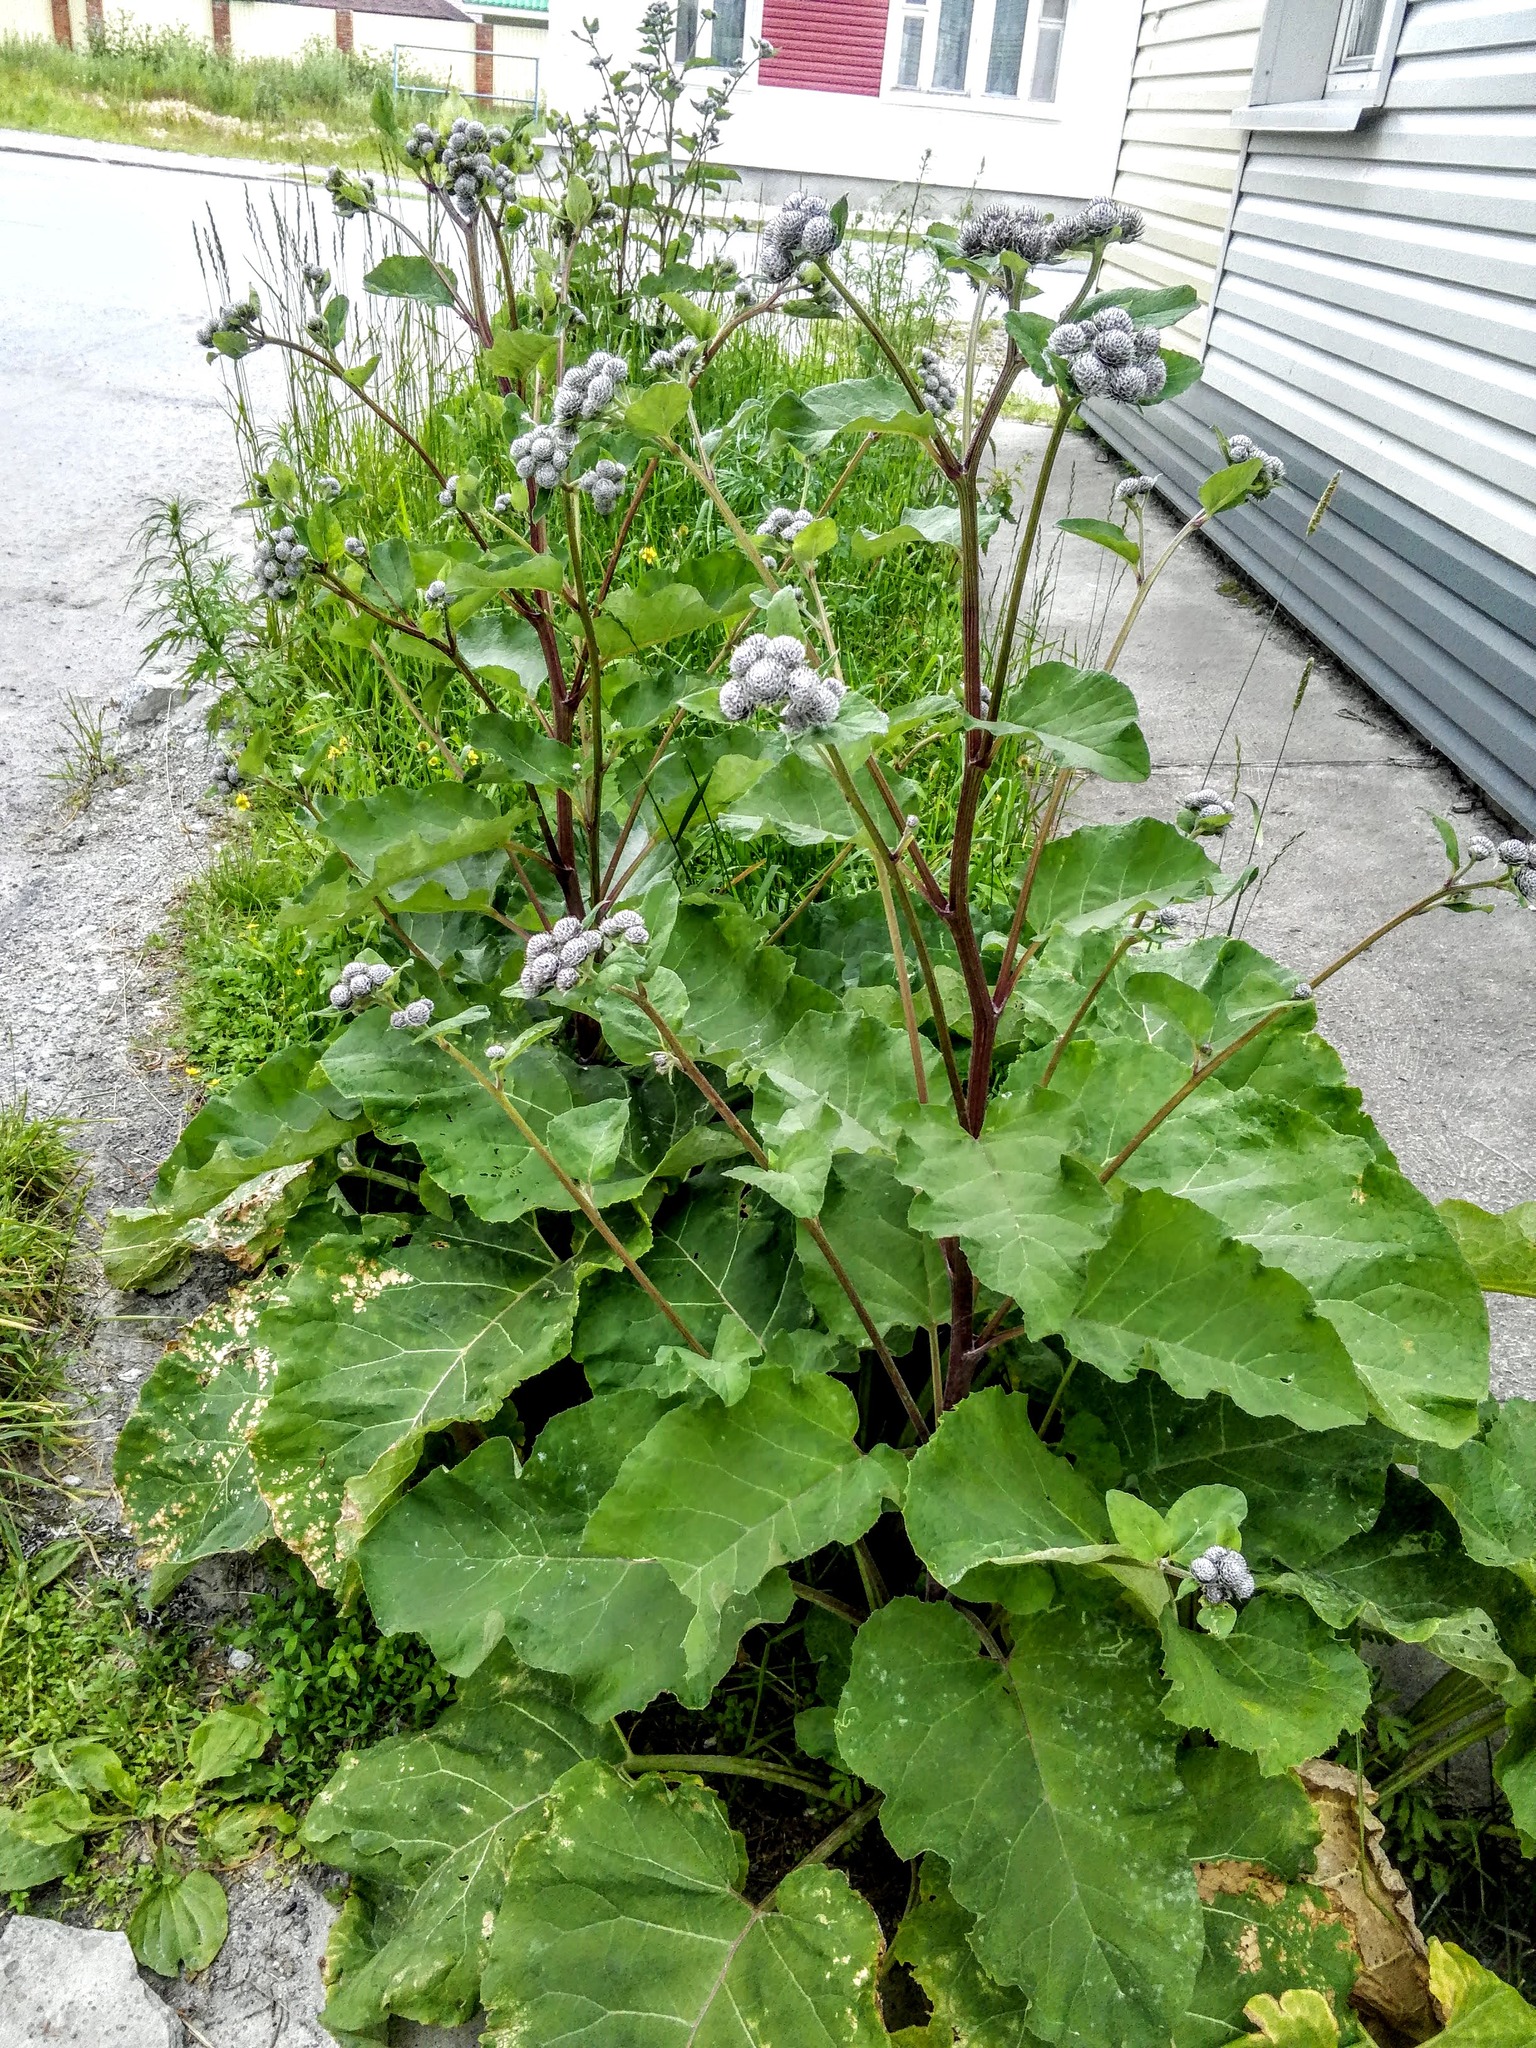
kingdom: Plantae
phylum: Tracheophyta
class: Magnoliopsida
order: Asterales
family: Asteraceae
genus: Arctium
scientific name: Arctium tomentosum
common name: Woolly burdock
